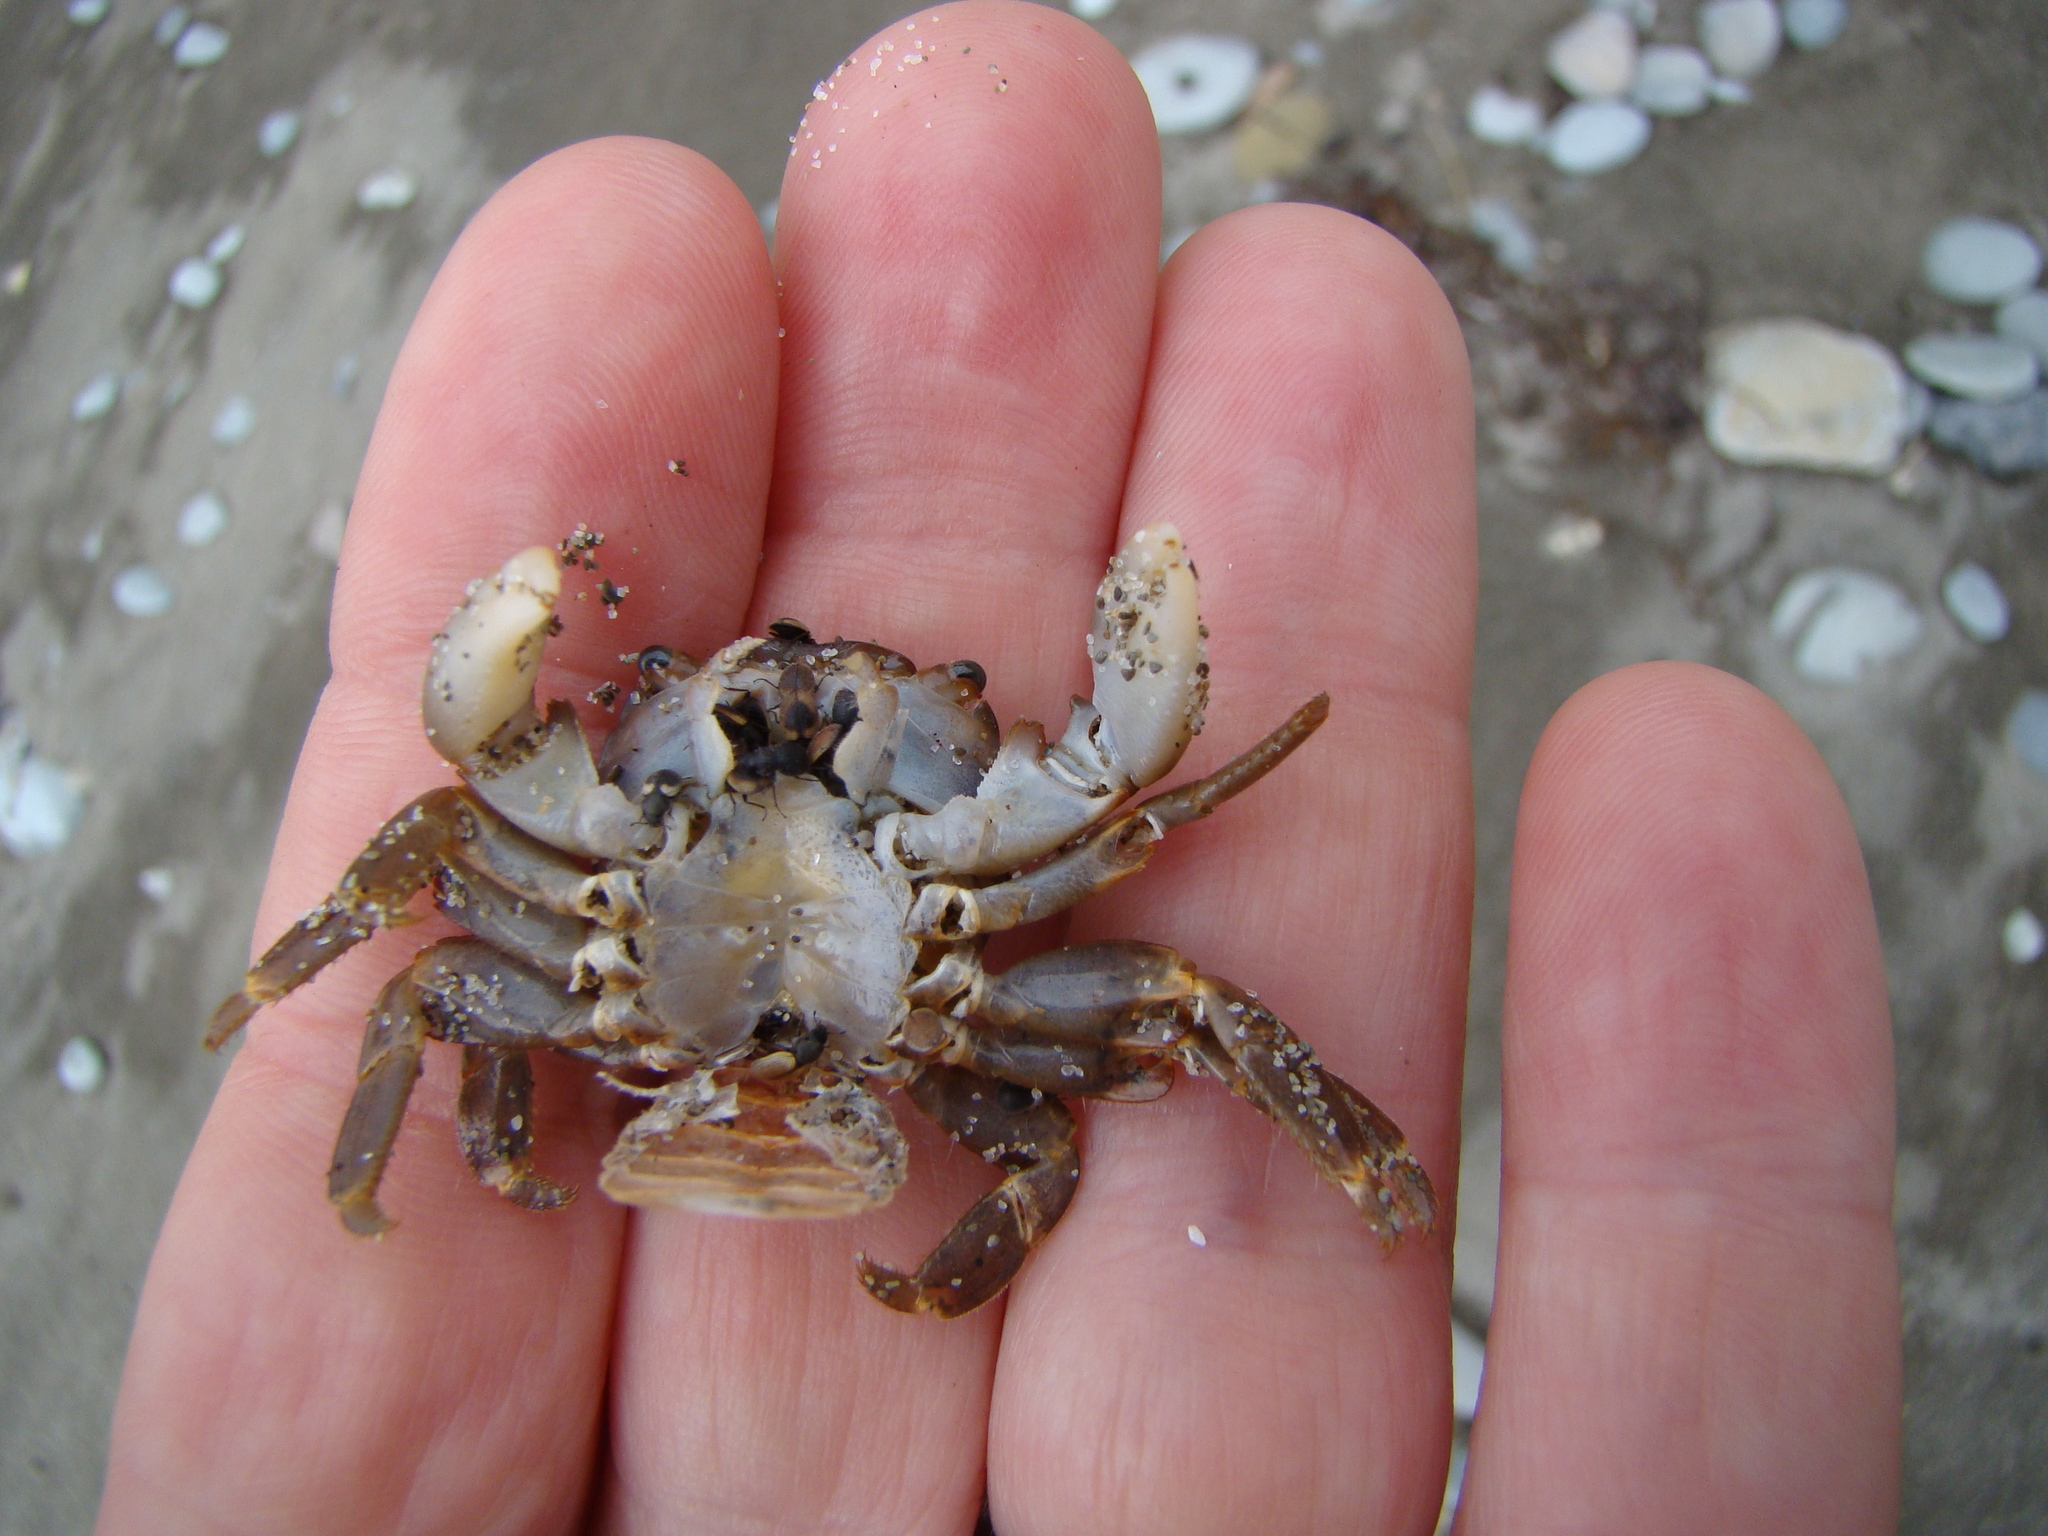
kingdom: Animalia
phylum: Arthropoda
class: Insecta
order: Coleoptera
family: Phycosecidae
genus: Phycosecis
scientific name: Phycosecis
